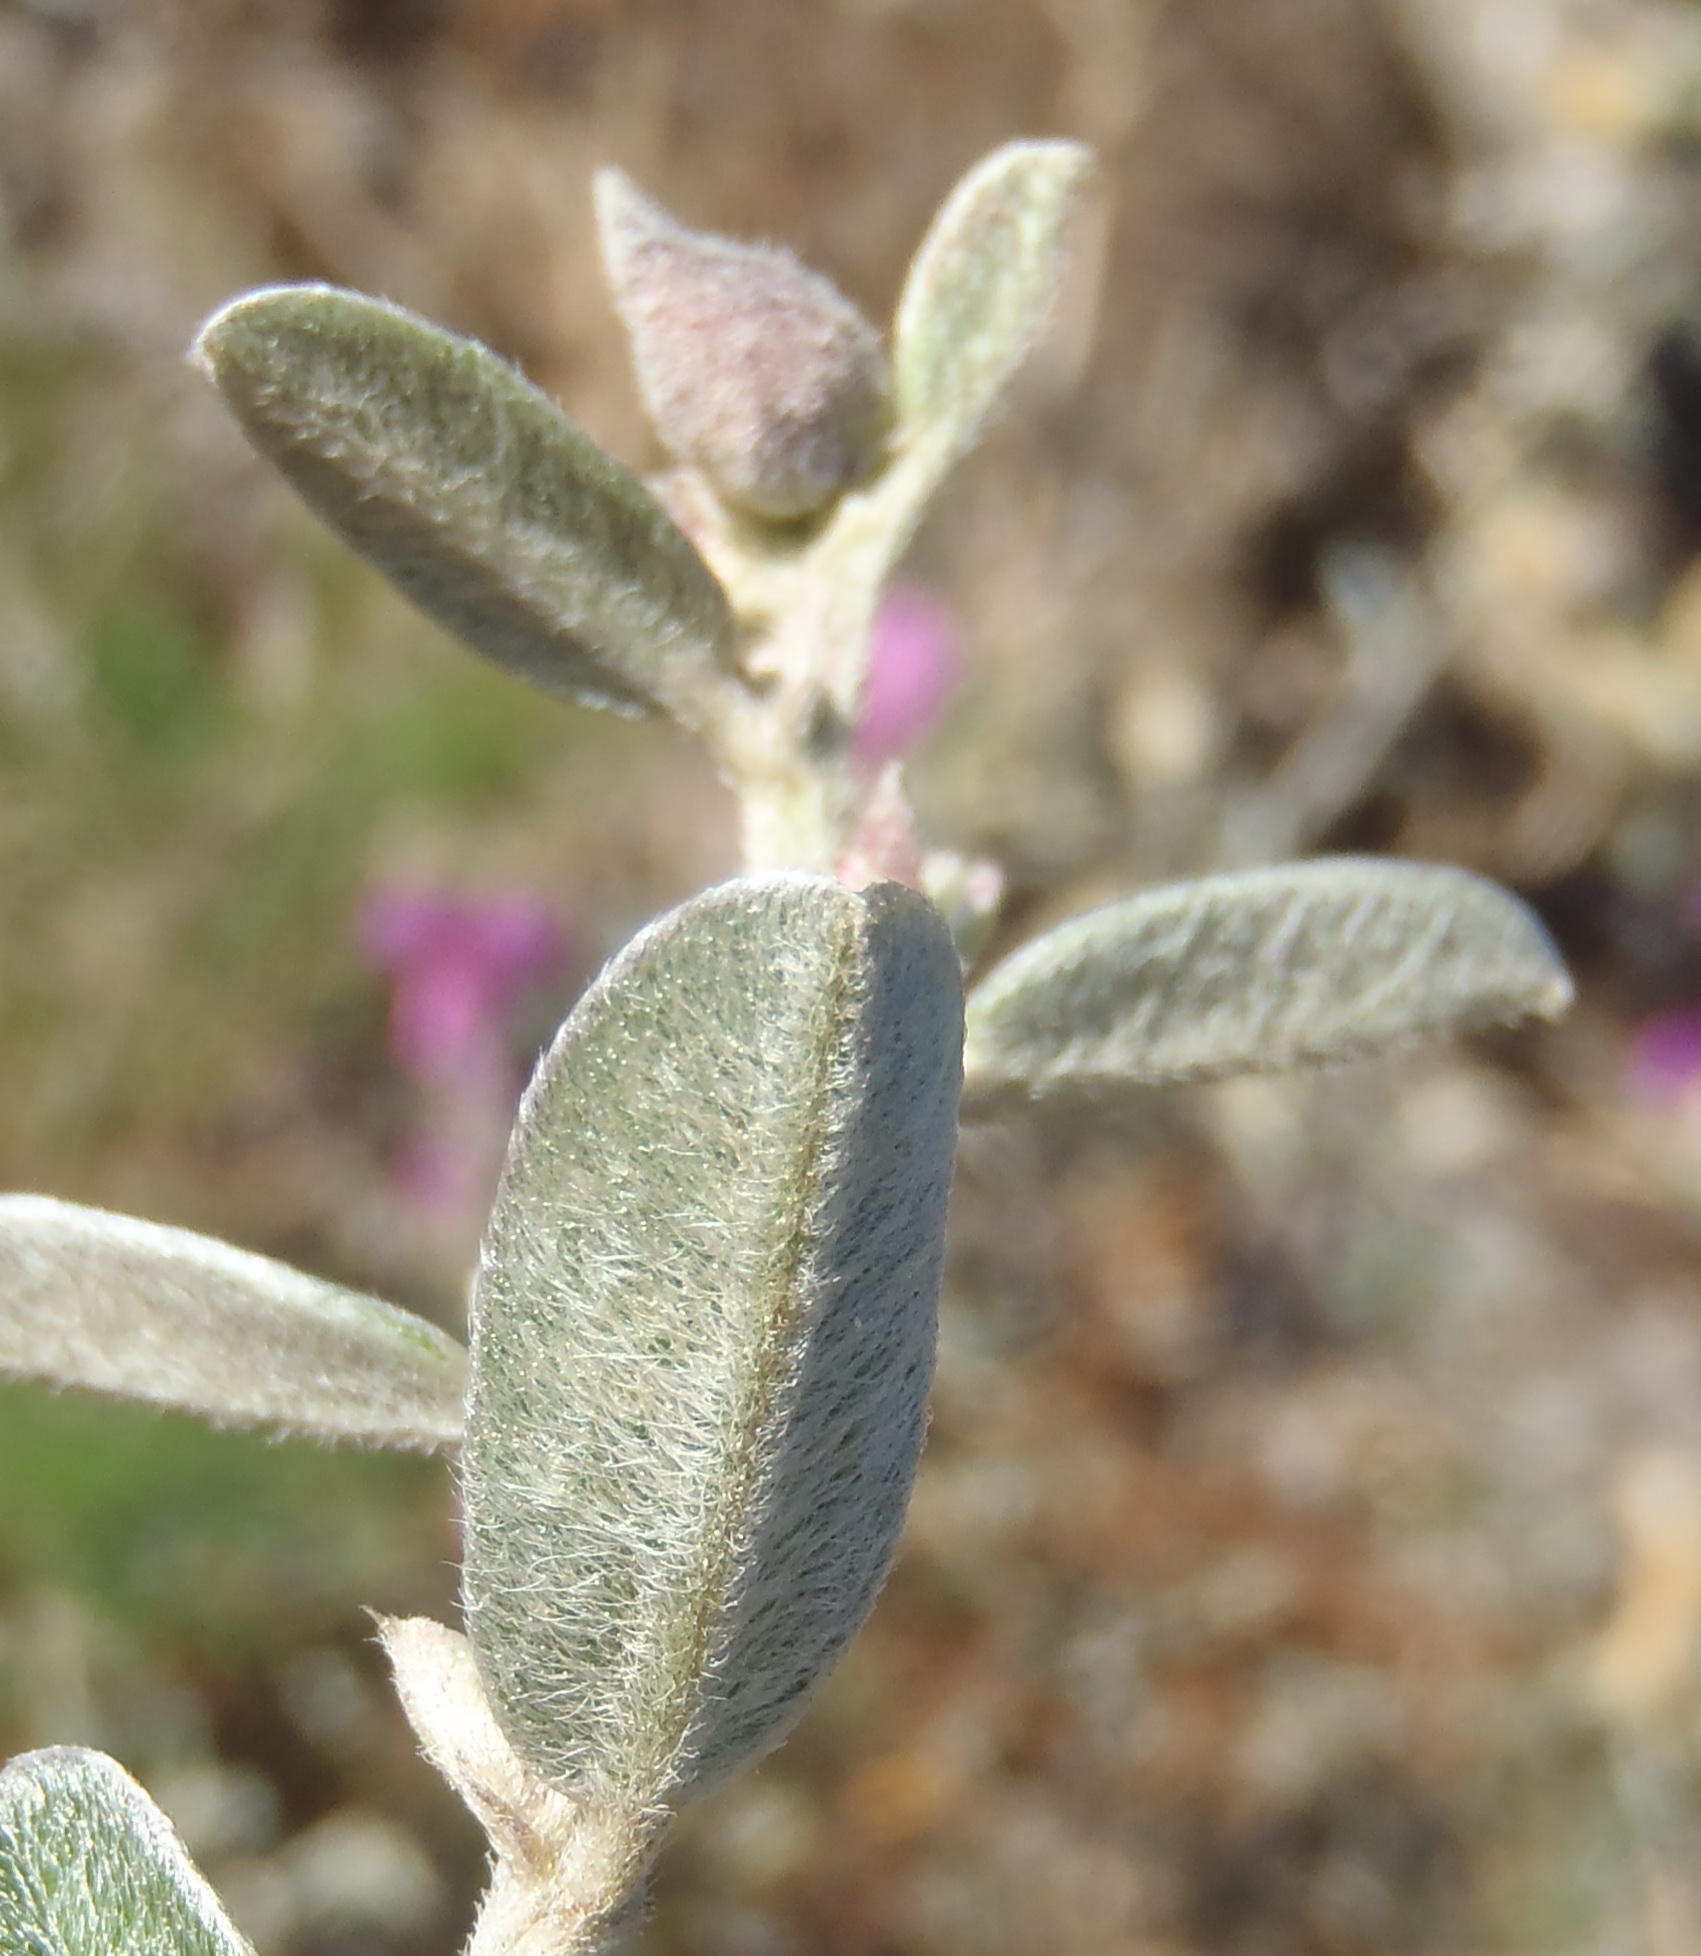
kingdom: Plantae
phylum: Tracheophyta
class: Magnoliopsida
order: Fabales
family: Fabaceae
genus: Podalyria
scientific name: Podalyria burchellii
